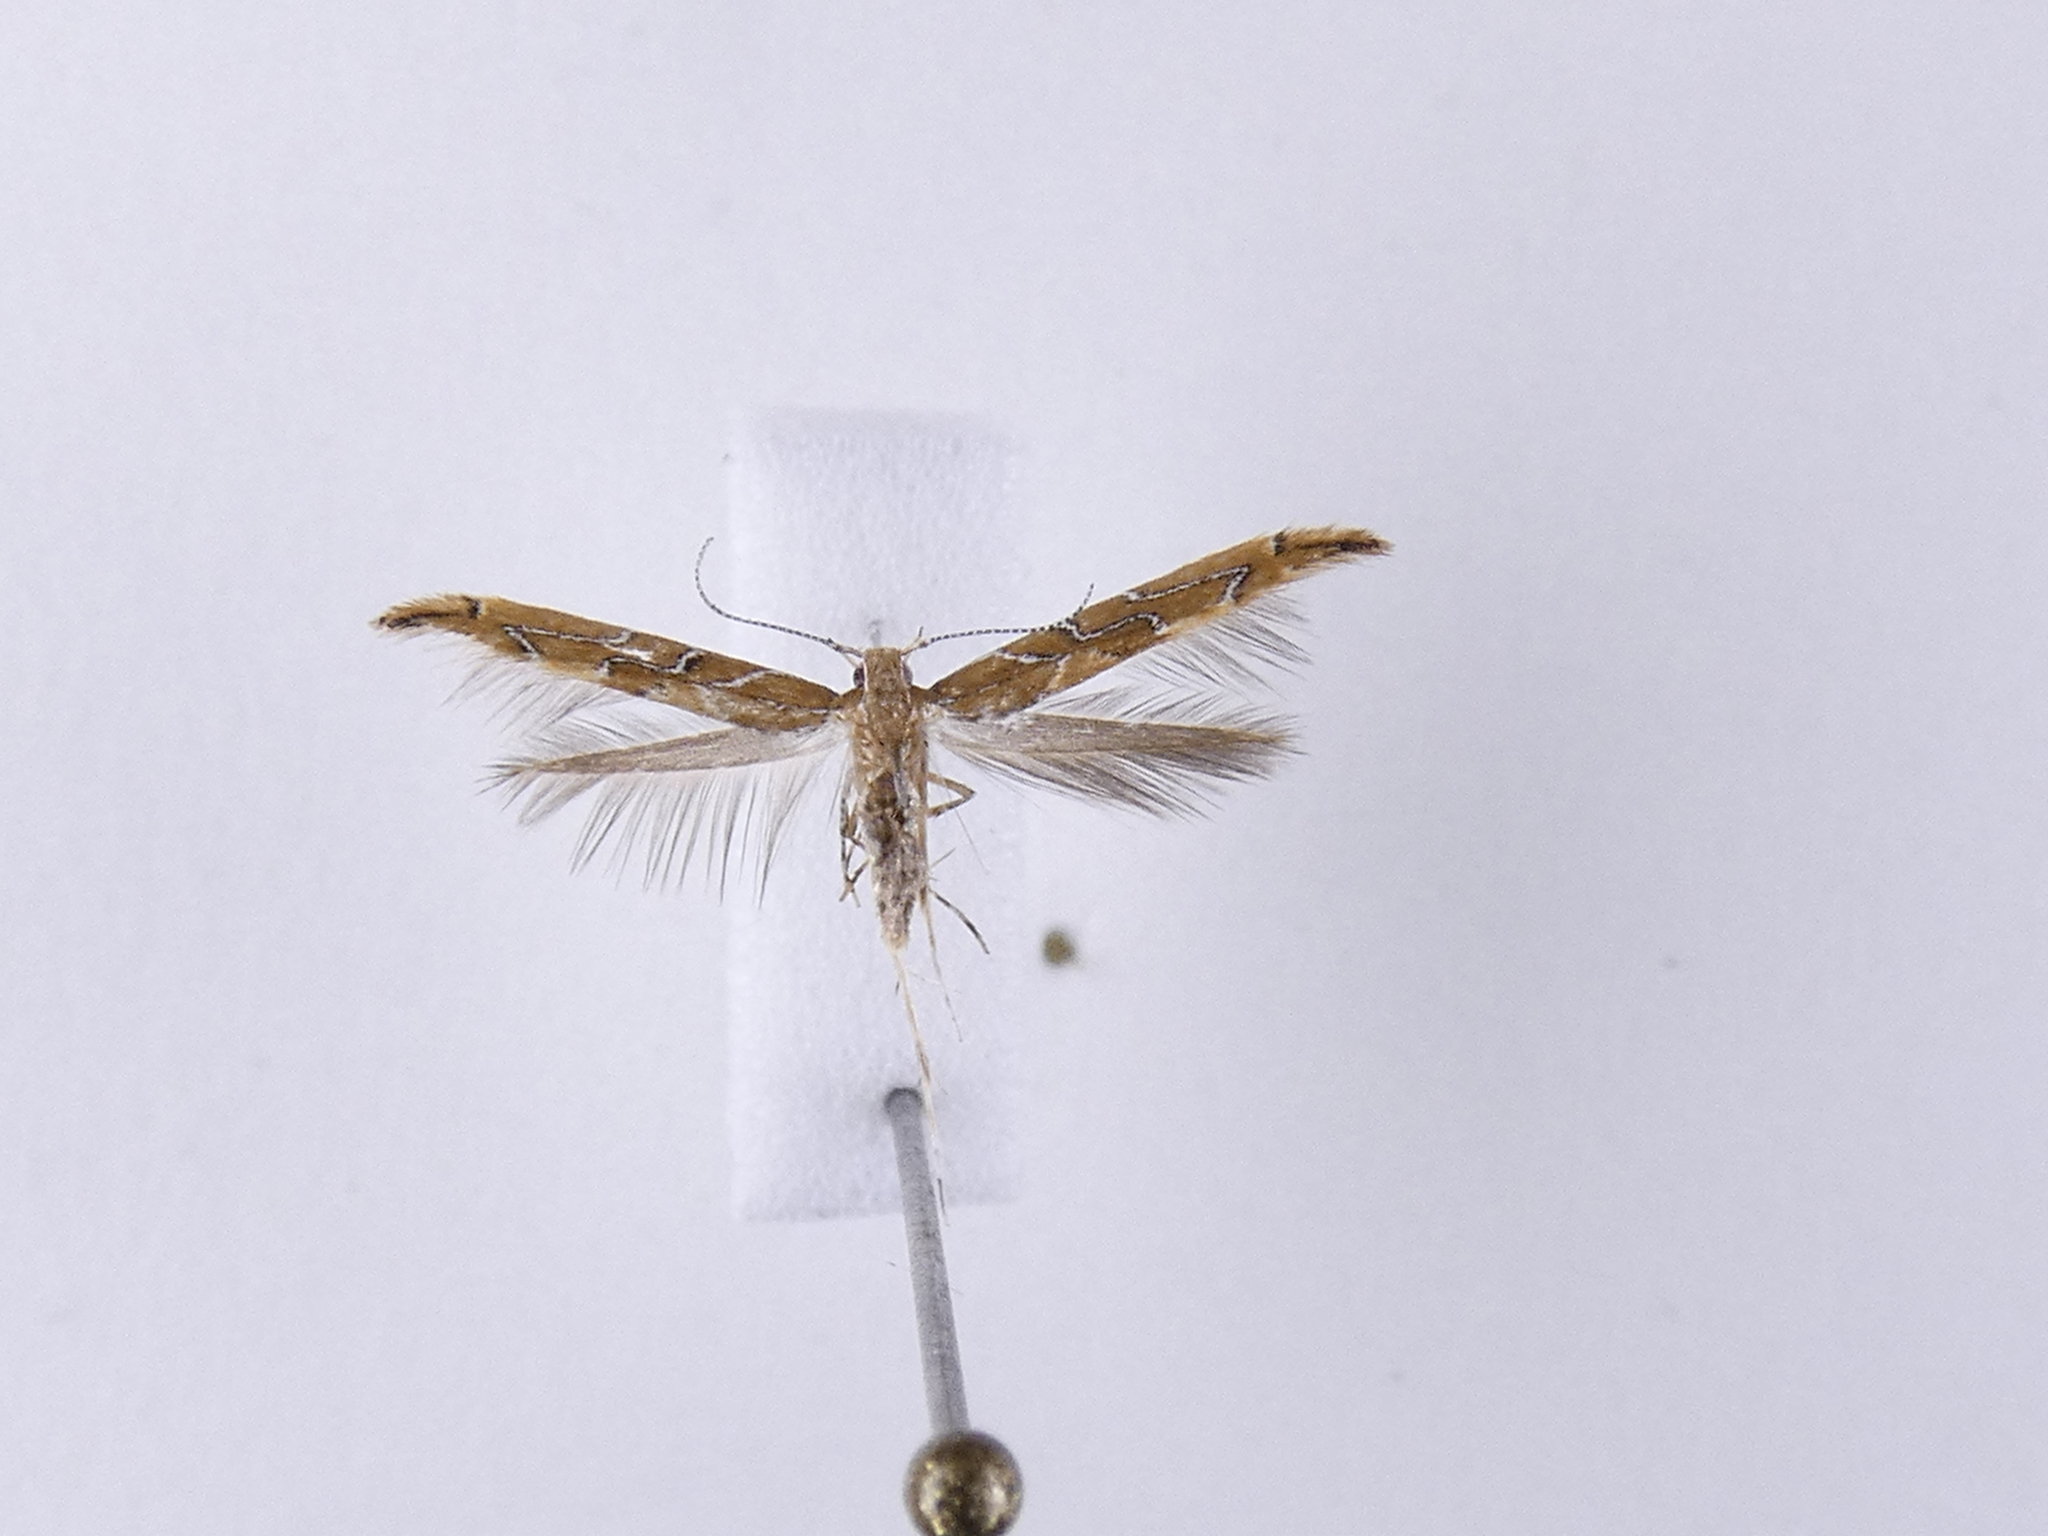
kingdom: Animalia
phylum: Arthropoda
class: Insecta
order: Lepidoptera
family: Cosmopterigidae
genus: Pyroderces
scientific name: Pyroderces apparitella
